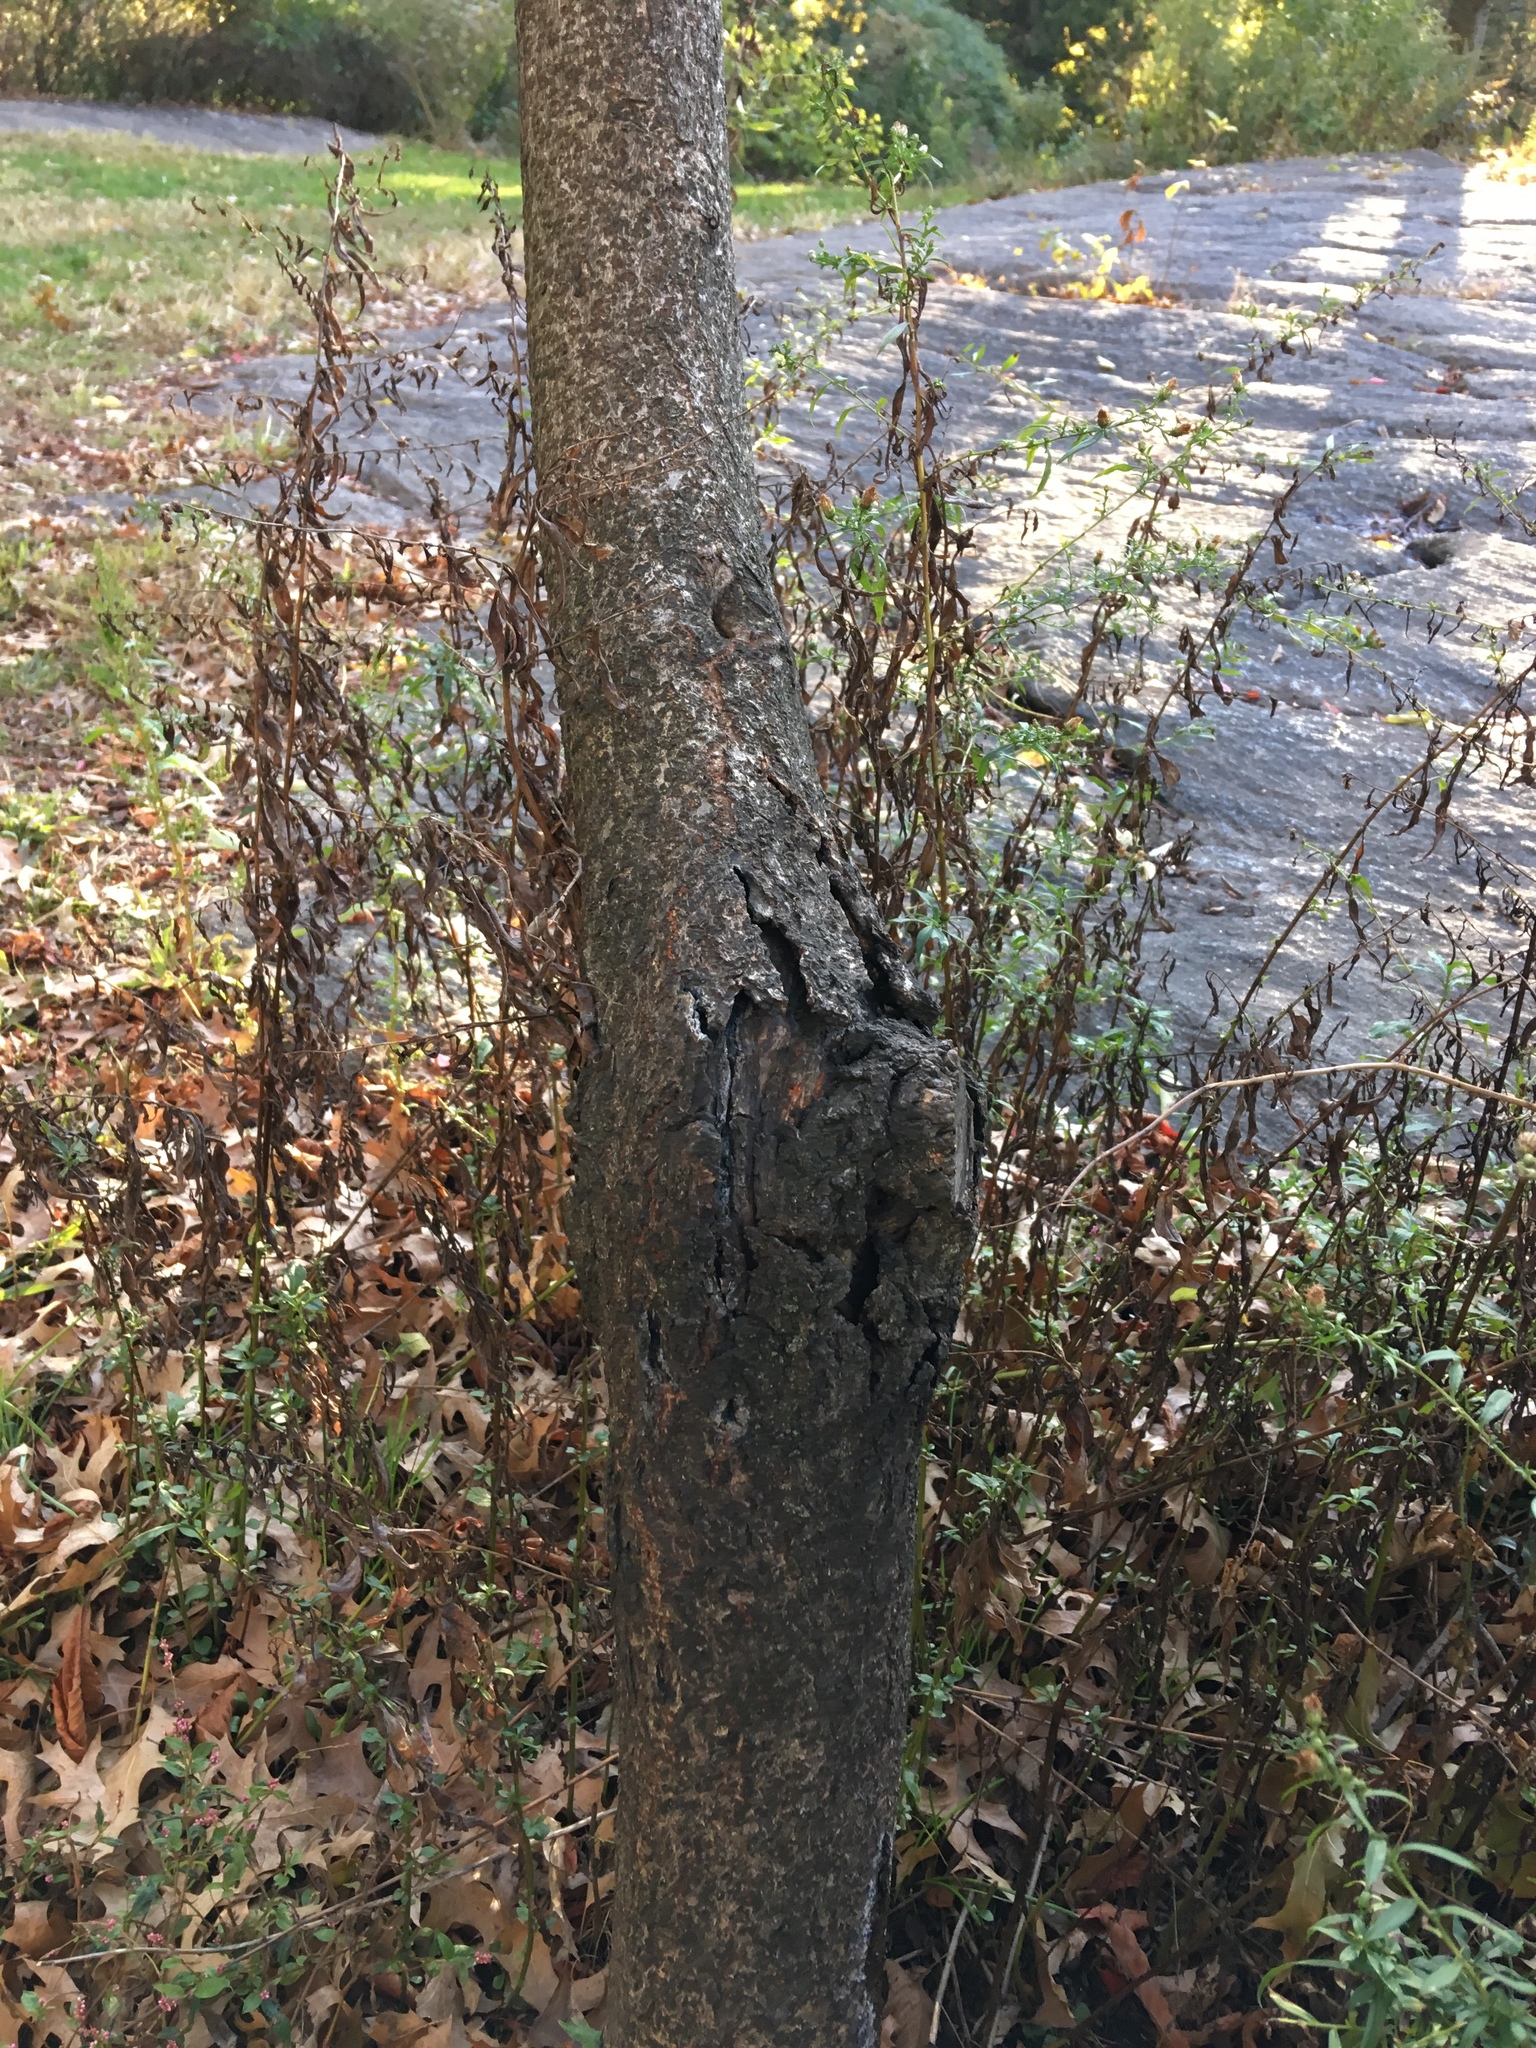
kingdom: Plantae
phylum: Tracheophyta
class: Magnoliopsida
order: Sapindales
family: Anacardiaceae
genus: Rhus
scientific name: Rhus copallina
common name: Shining sumac
